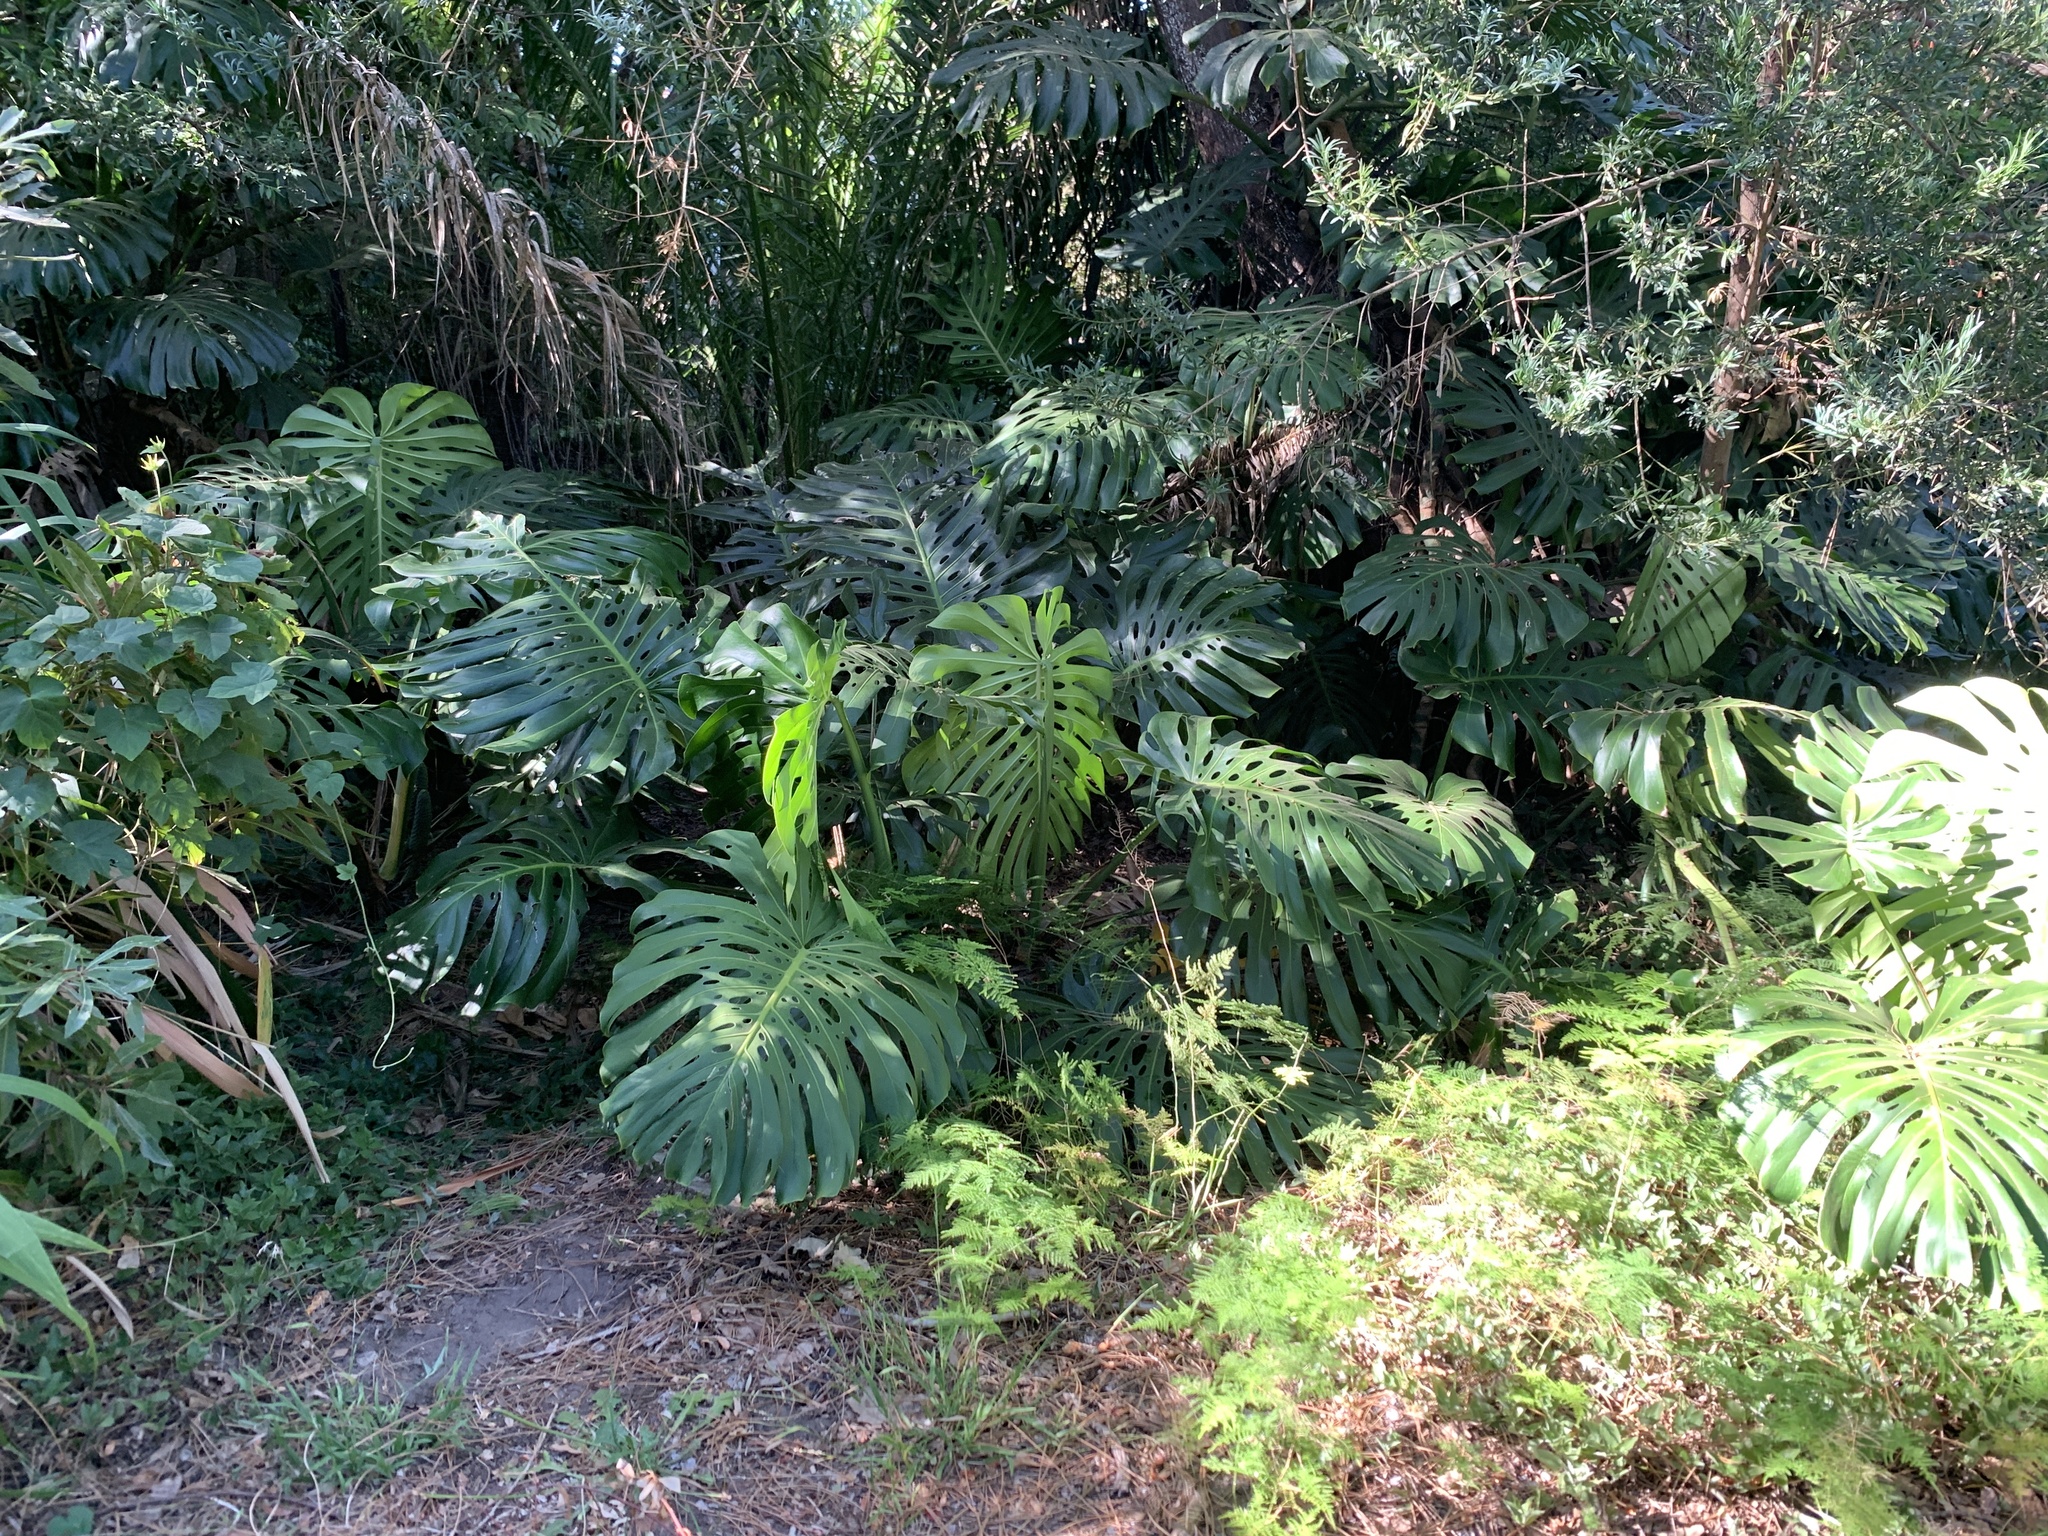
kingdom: Plantae
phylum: Tracheophyta
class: Liliopsida
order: Alismatales
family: Araceae
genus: Monstera
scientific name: Monstera deliciosa
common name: Cut-leaf-philodendron
